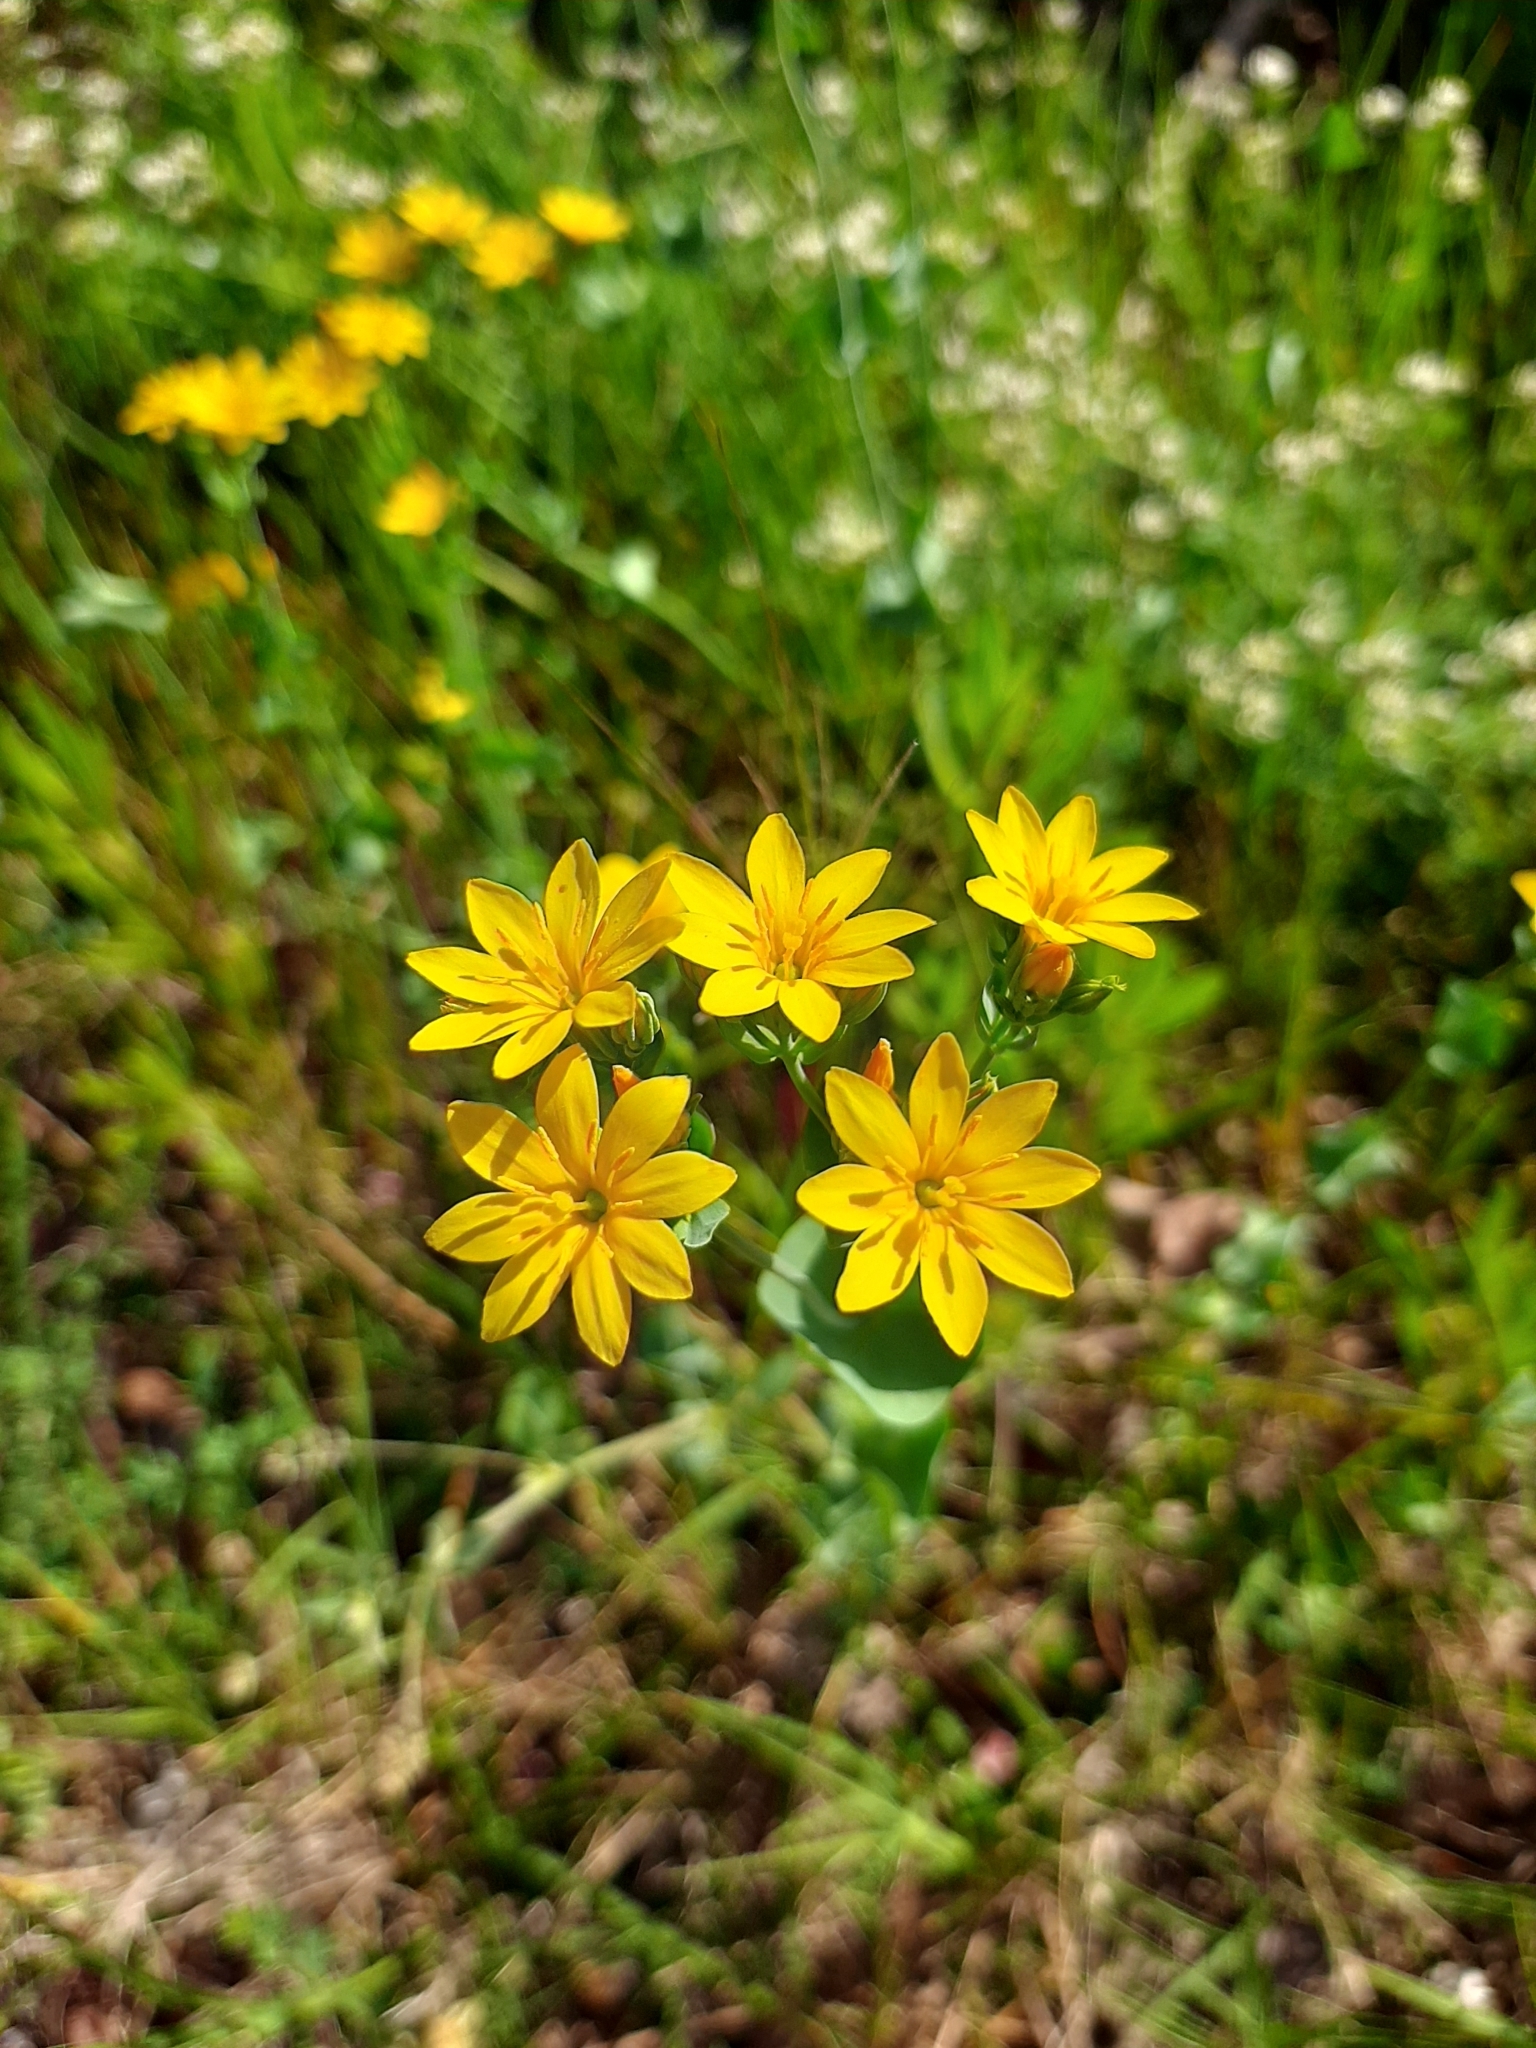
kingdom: Plantae
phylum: Tracheophyta
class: Magnoliopsida
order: Gentianales
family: Gentianaceae
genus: Blackstonia
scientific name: Blackstonia perfoliata
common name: Yellow-wort
